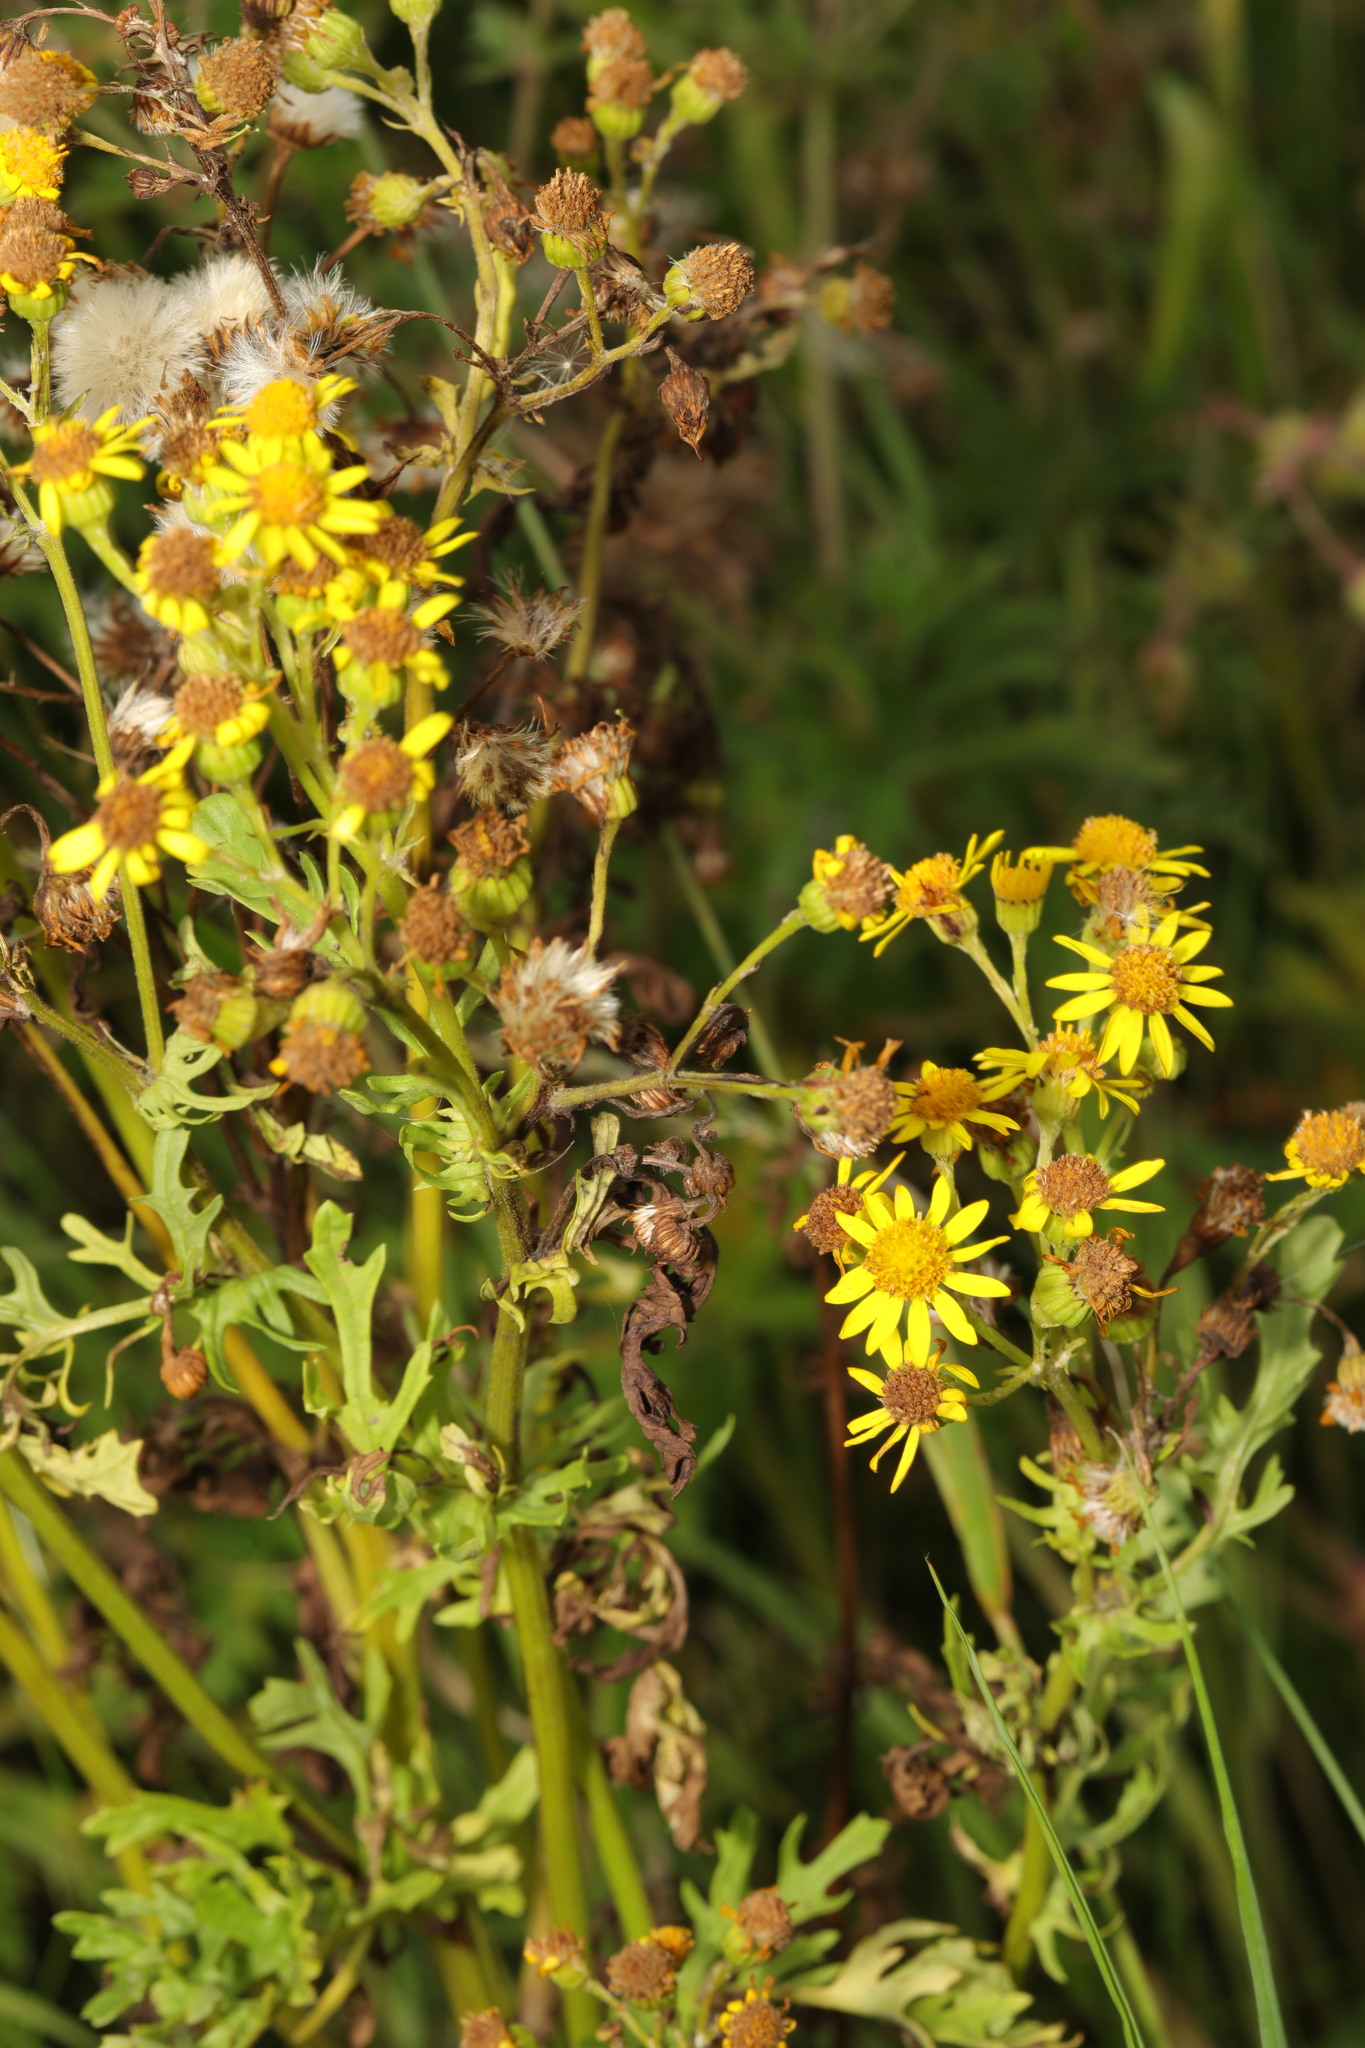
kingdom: Plantae
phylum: Tracheophyta
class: Magnoliopsida
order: Asterales
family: Asteraceae
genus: Jacobaea
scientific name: Jacobaea vulgaris
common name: Stinking willie
